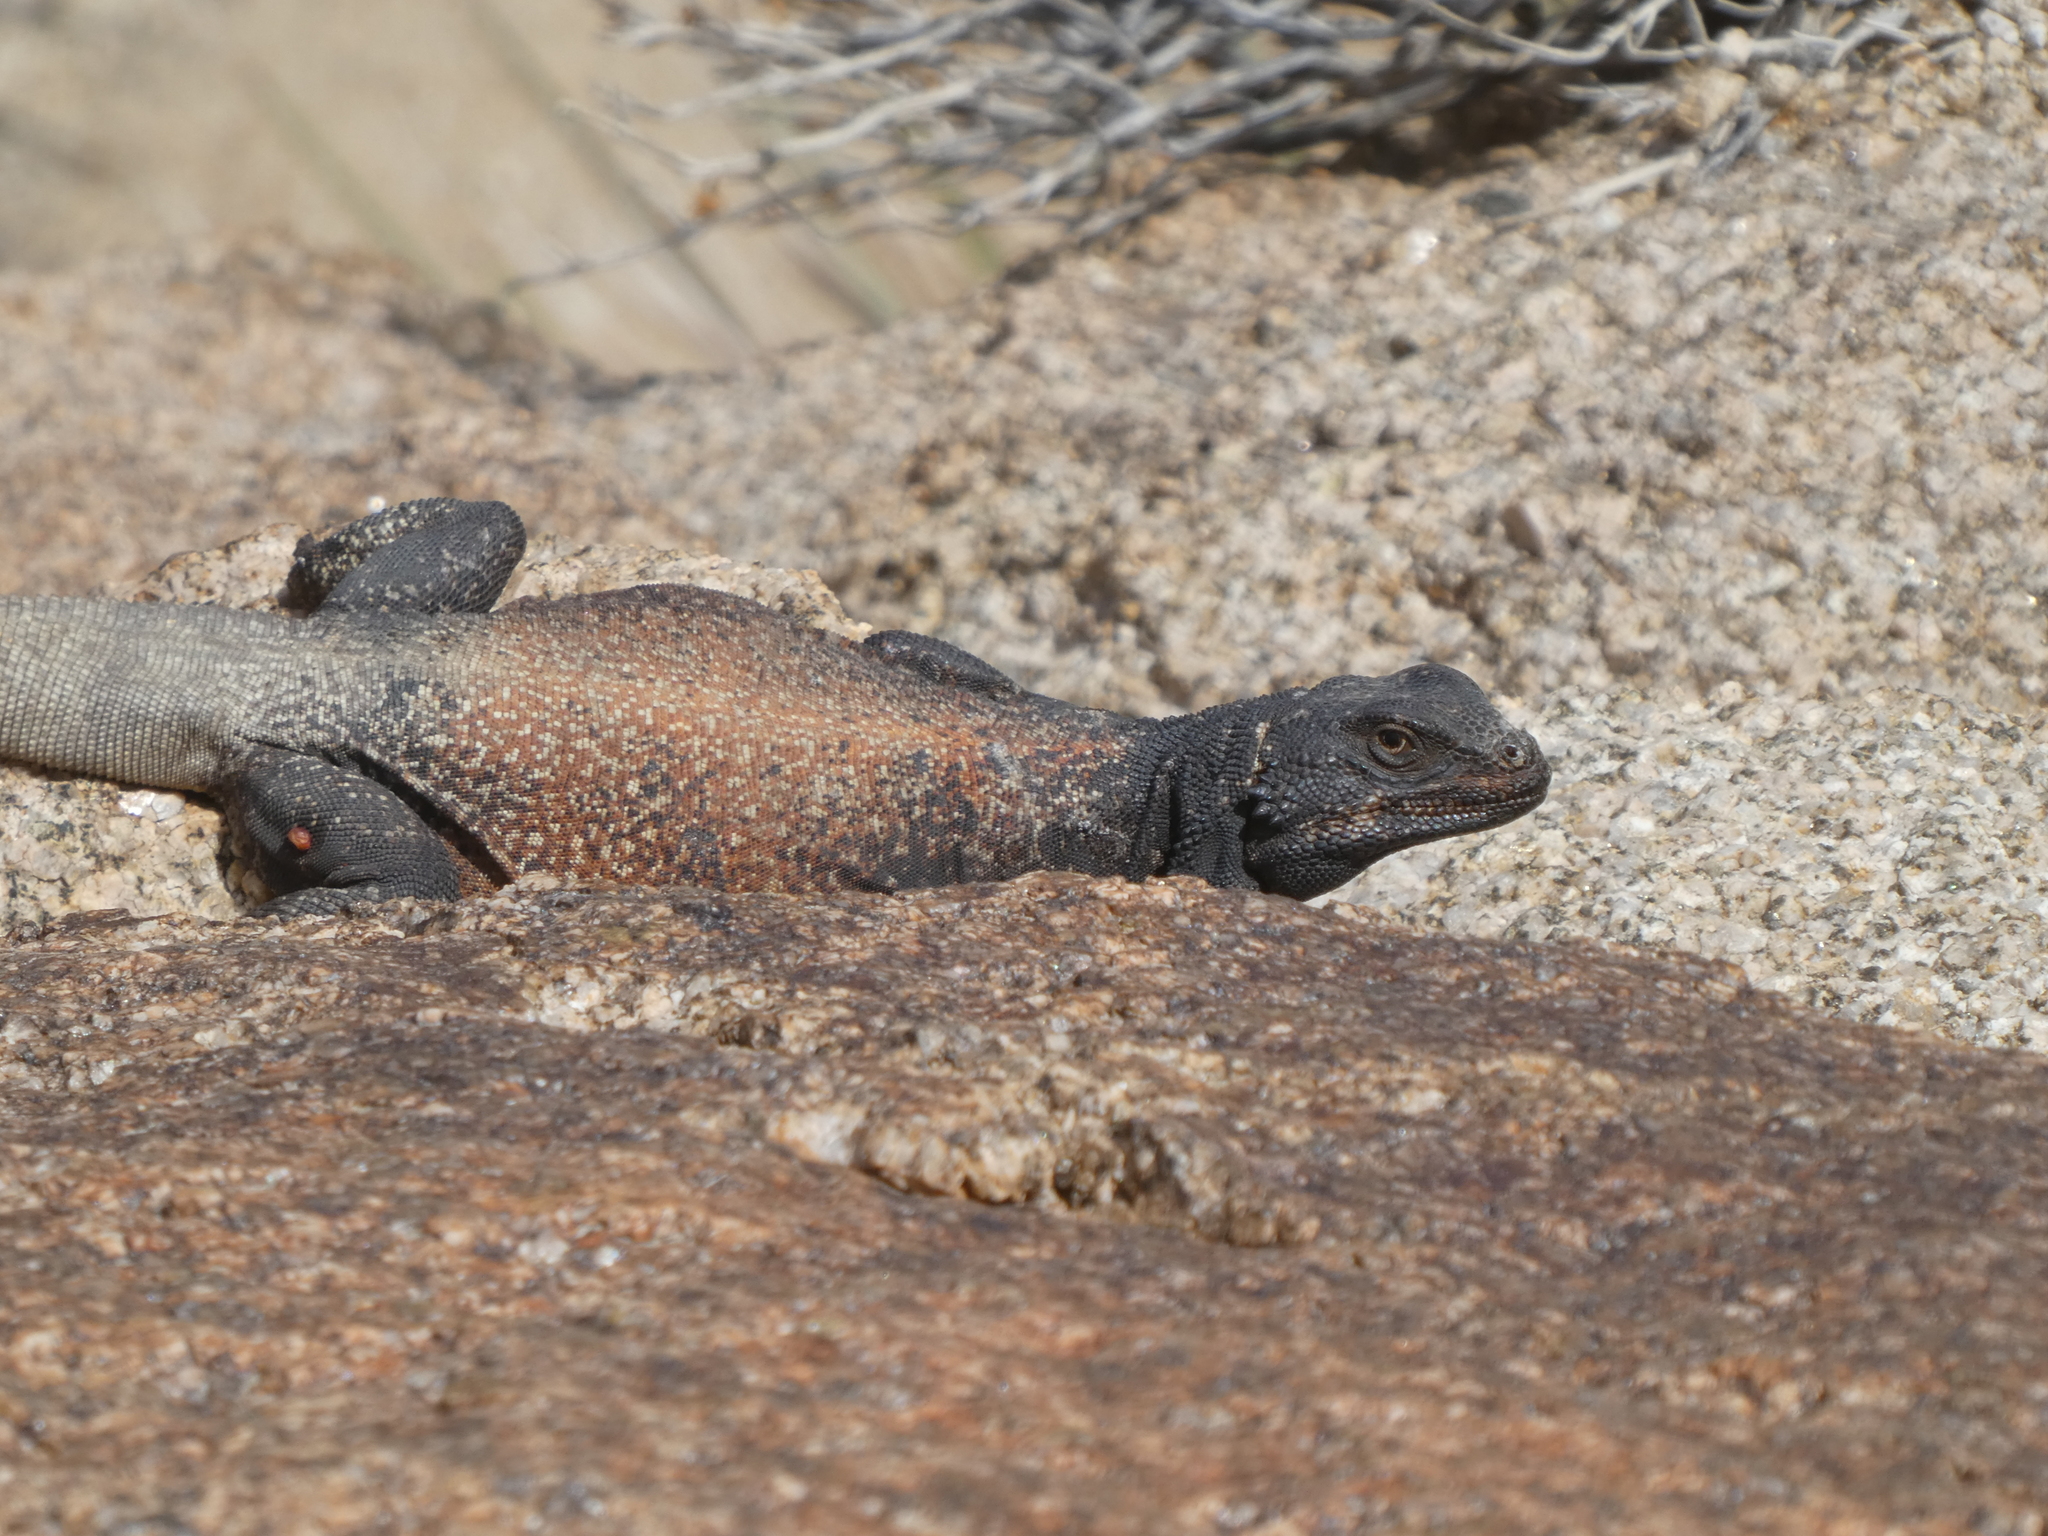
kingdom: Animalia
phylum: Chordata
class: Squamata
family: Iguanidae
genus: Sauromalus
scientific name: Sauromalus ater
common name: Northern chuckwalla
